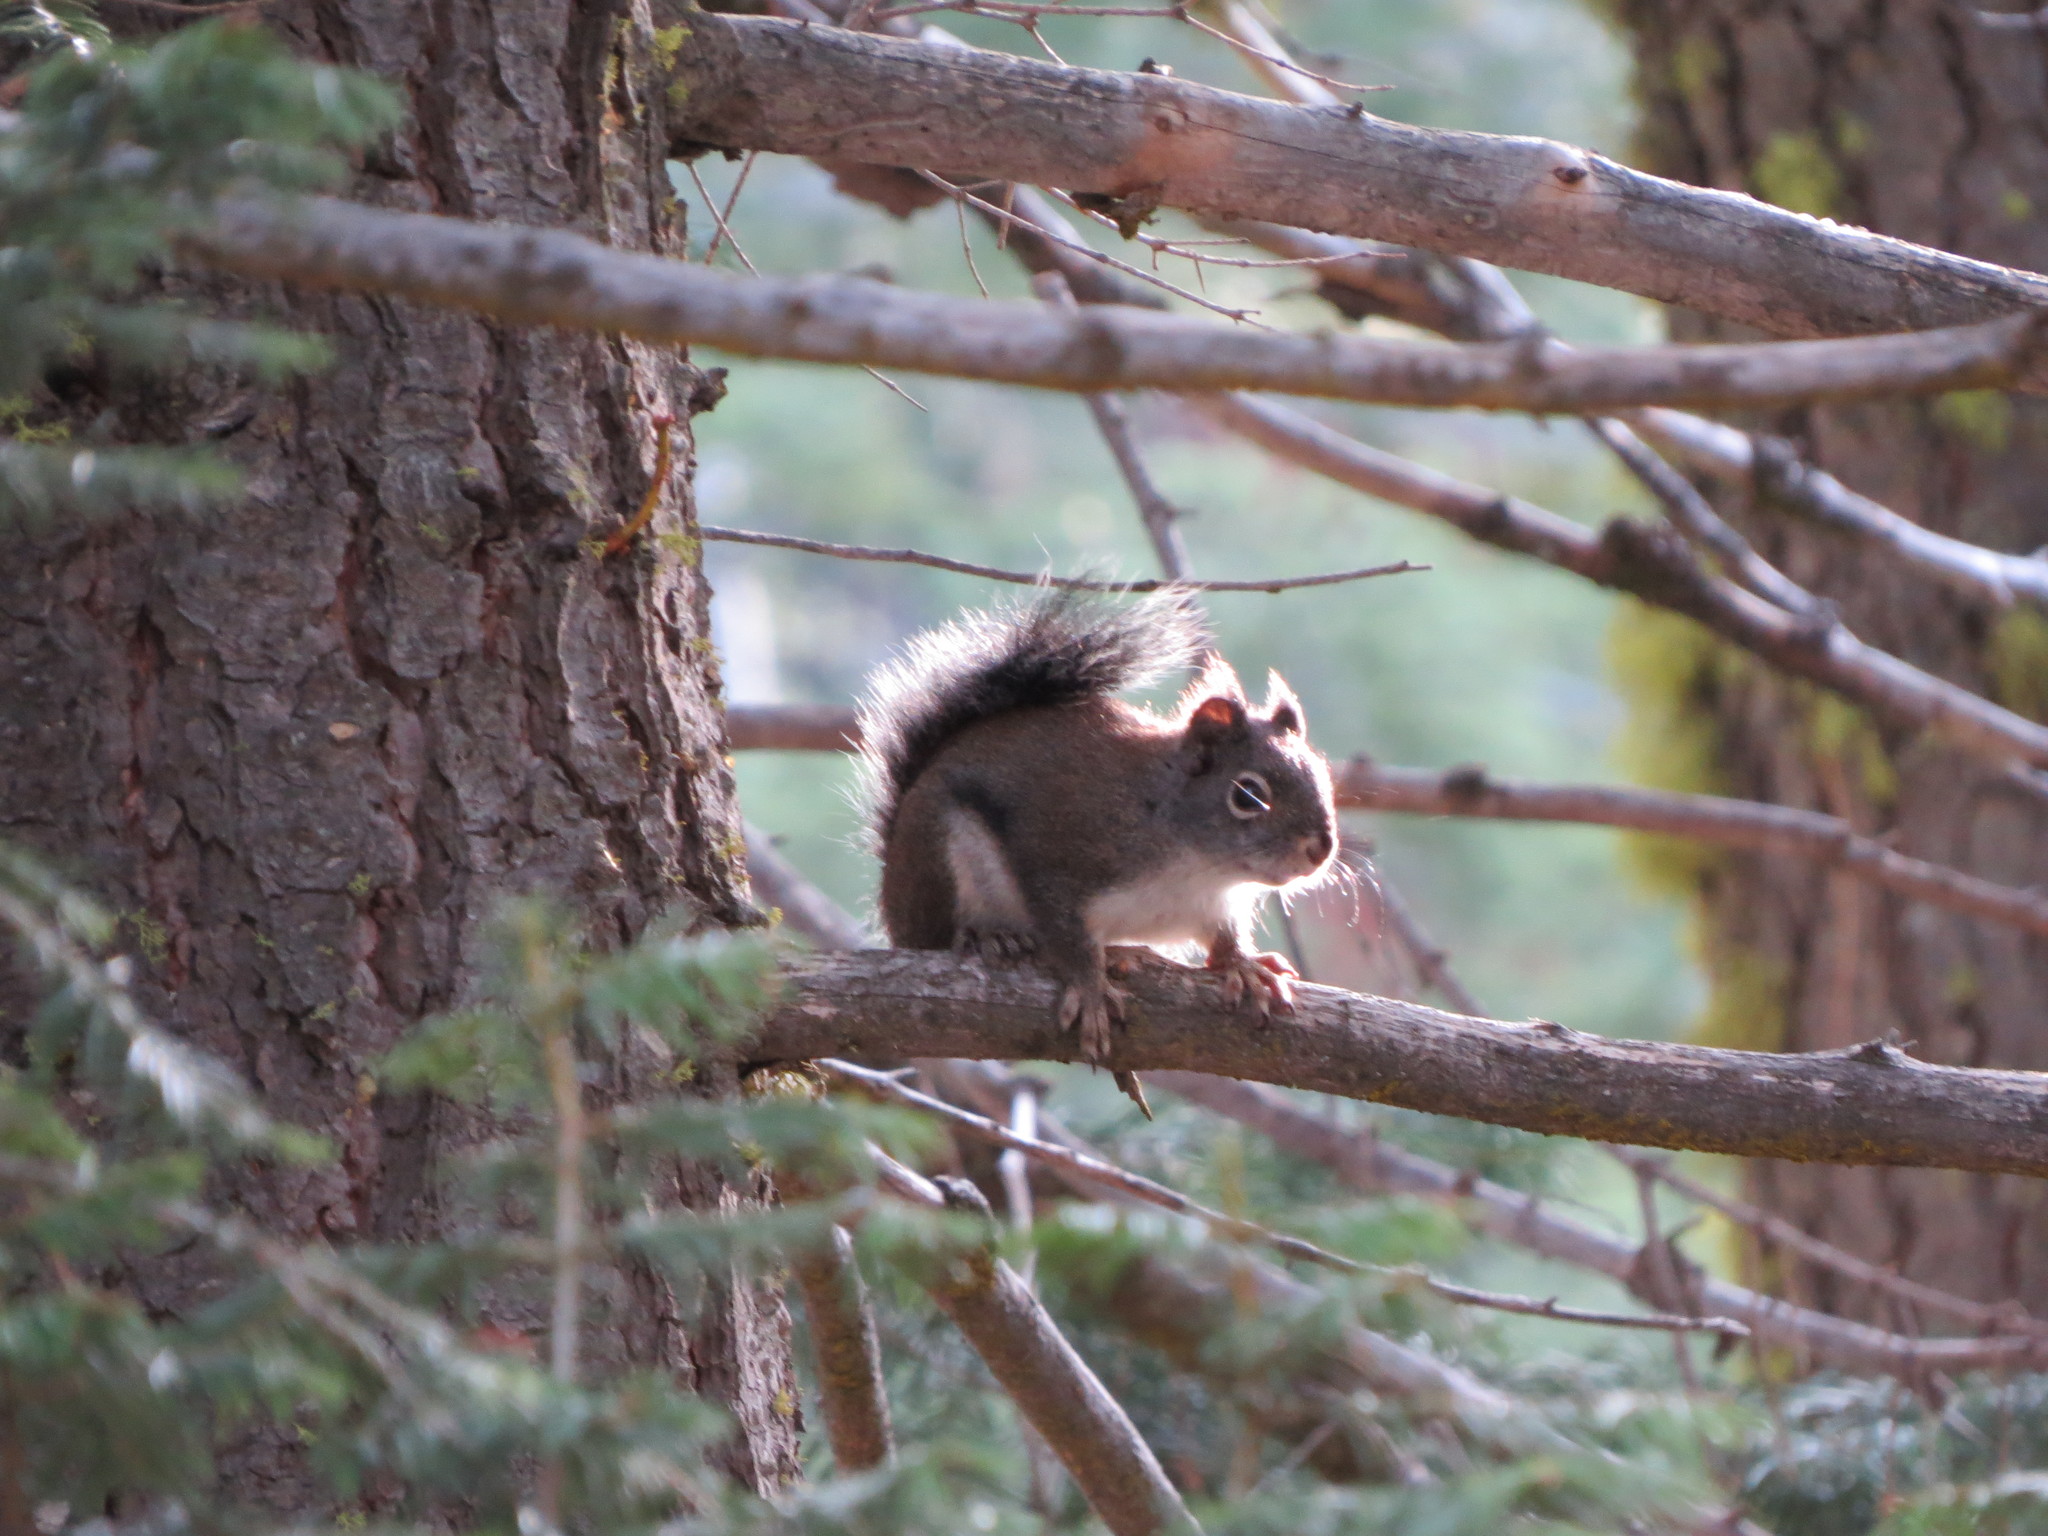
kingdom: Animalia
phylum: Chordata
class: Mammalia
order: Rodentia
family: Sciuridae
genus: Tamiasciurus
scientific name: Tamiasciurus douglasii
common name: Douglas's squirrel
